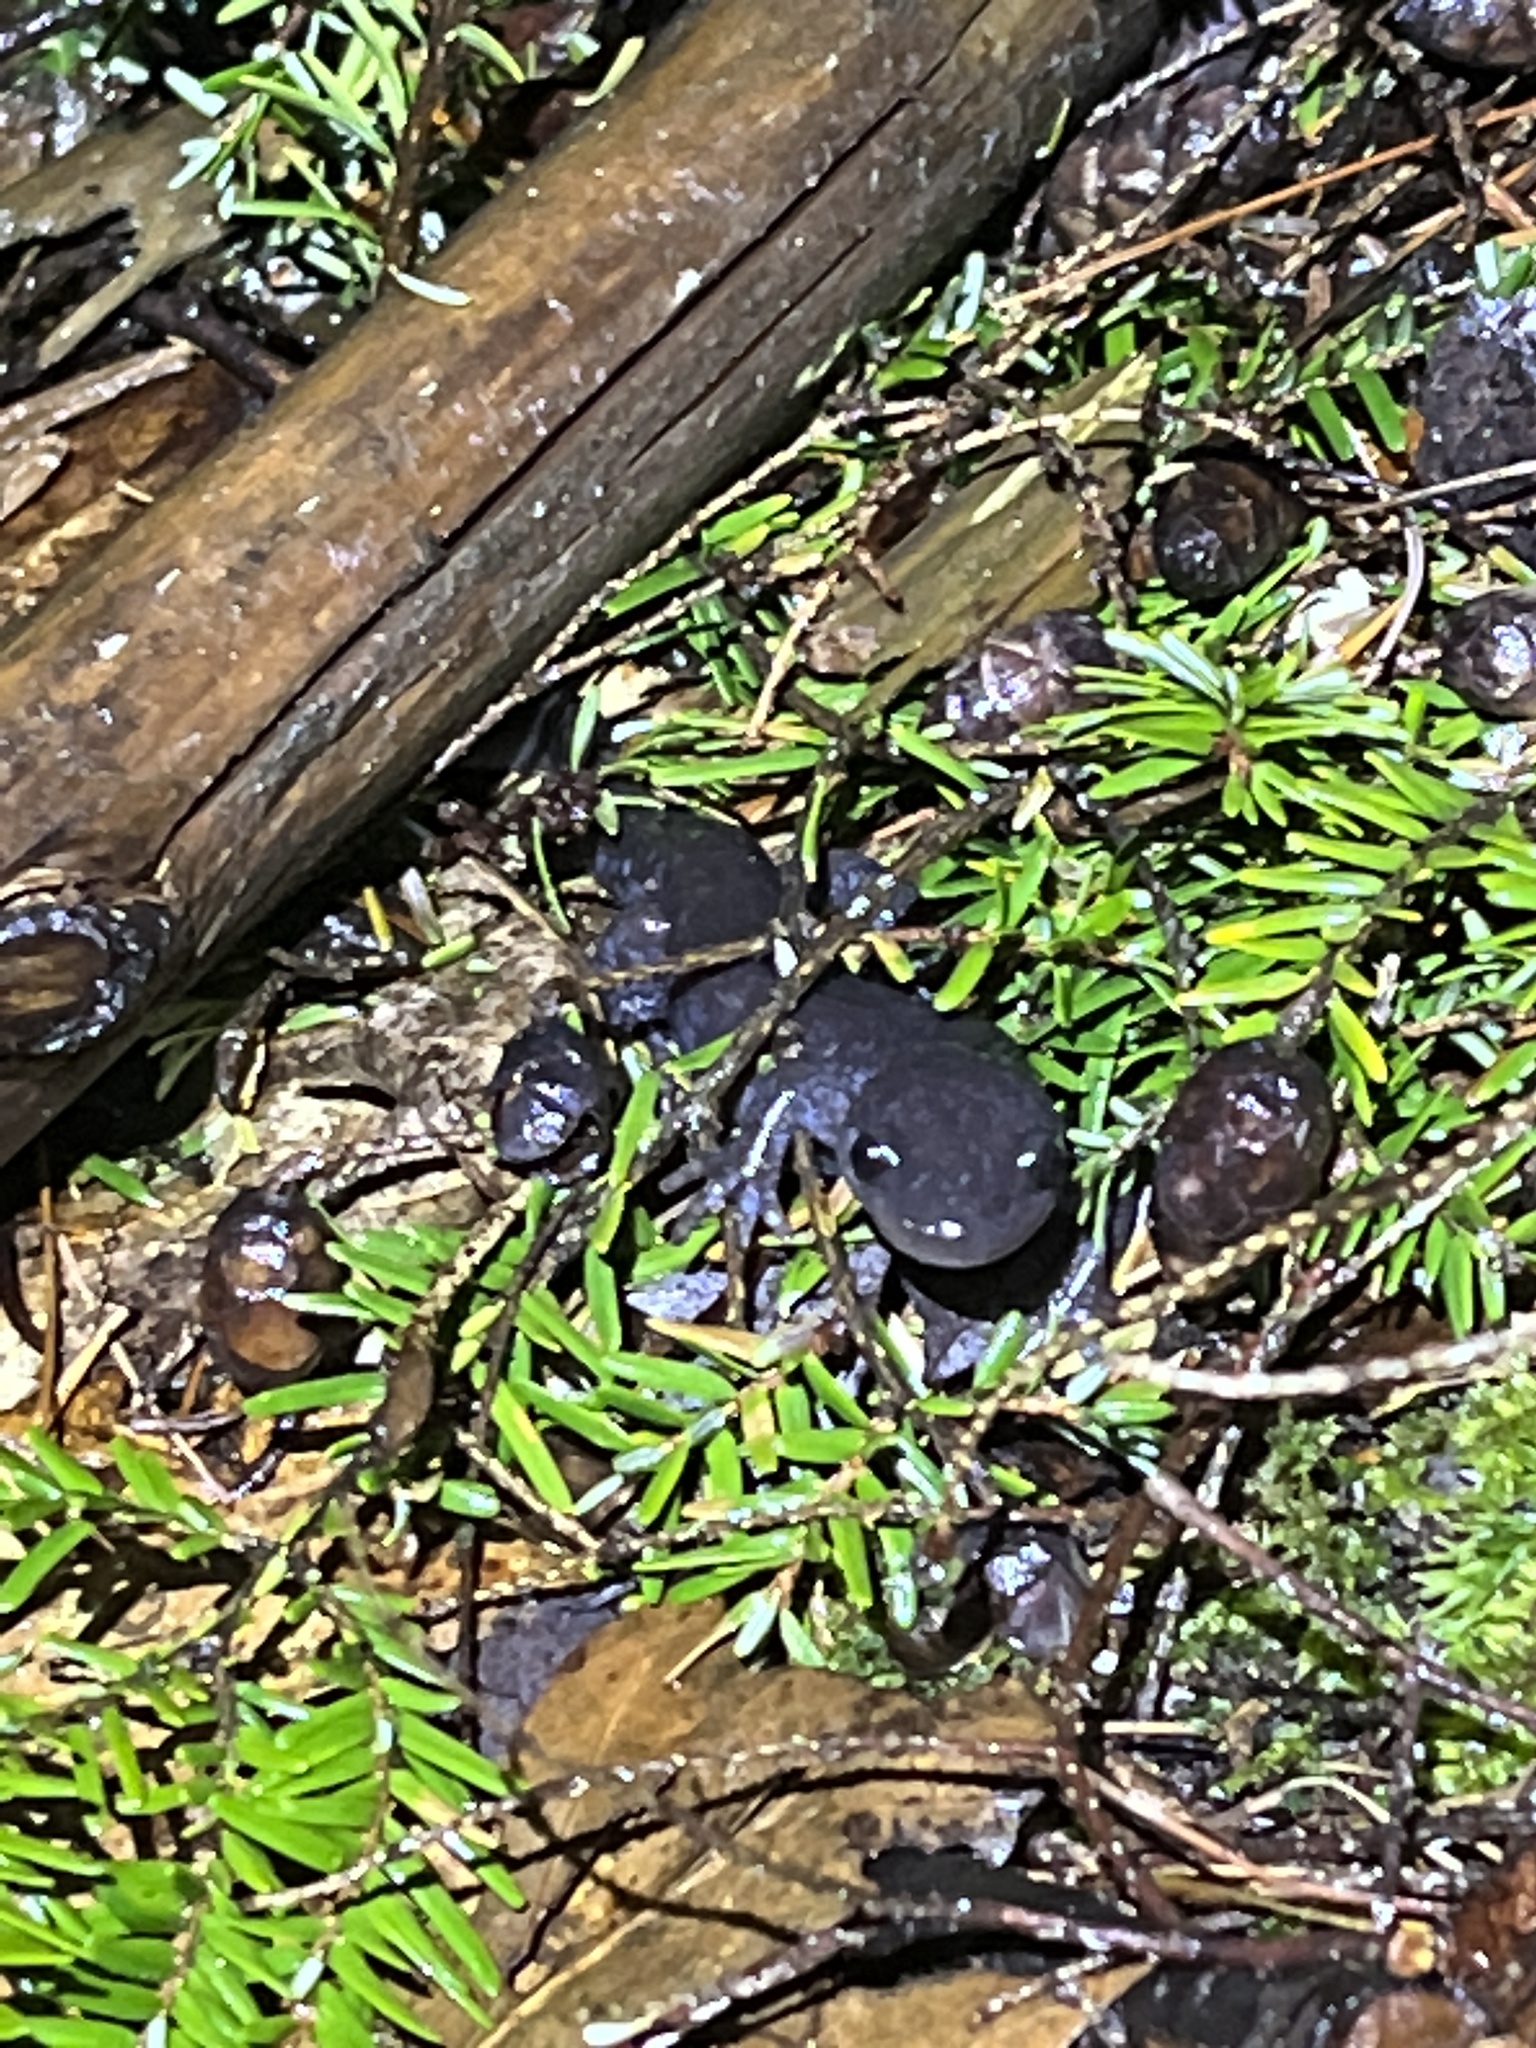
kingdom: Animalia
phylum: Chordata
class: Amphibia
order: Caudata
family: Ambystomatidae
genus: Ambystoma
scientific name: Ambystoma jeffersonianum
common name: Jefferson salamander
